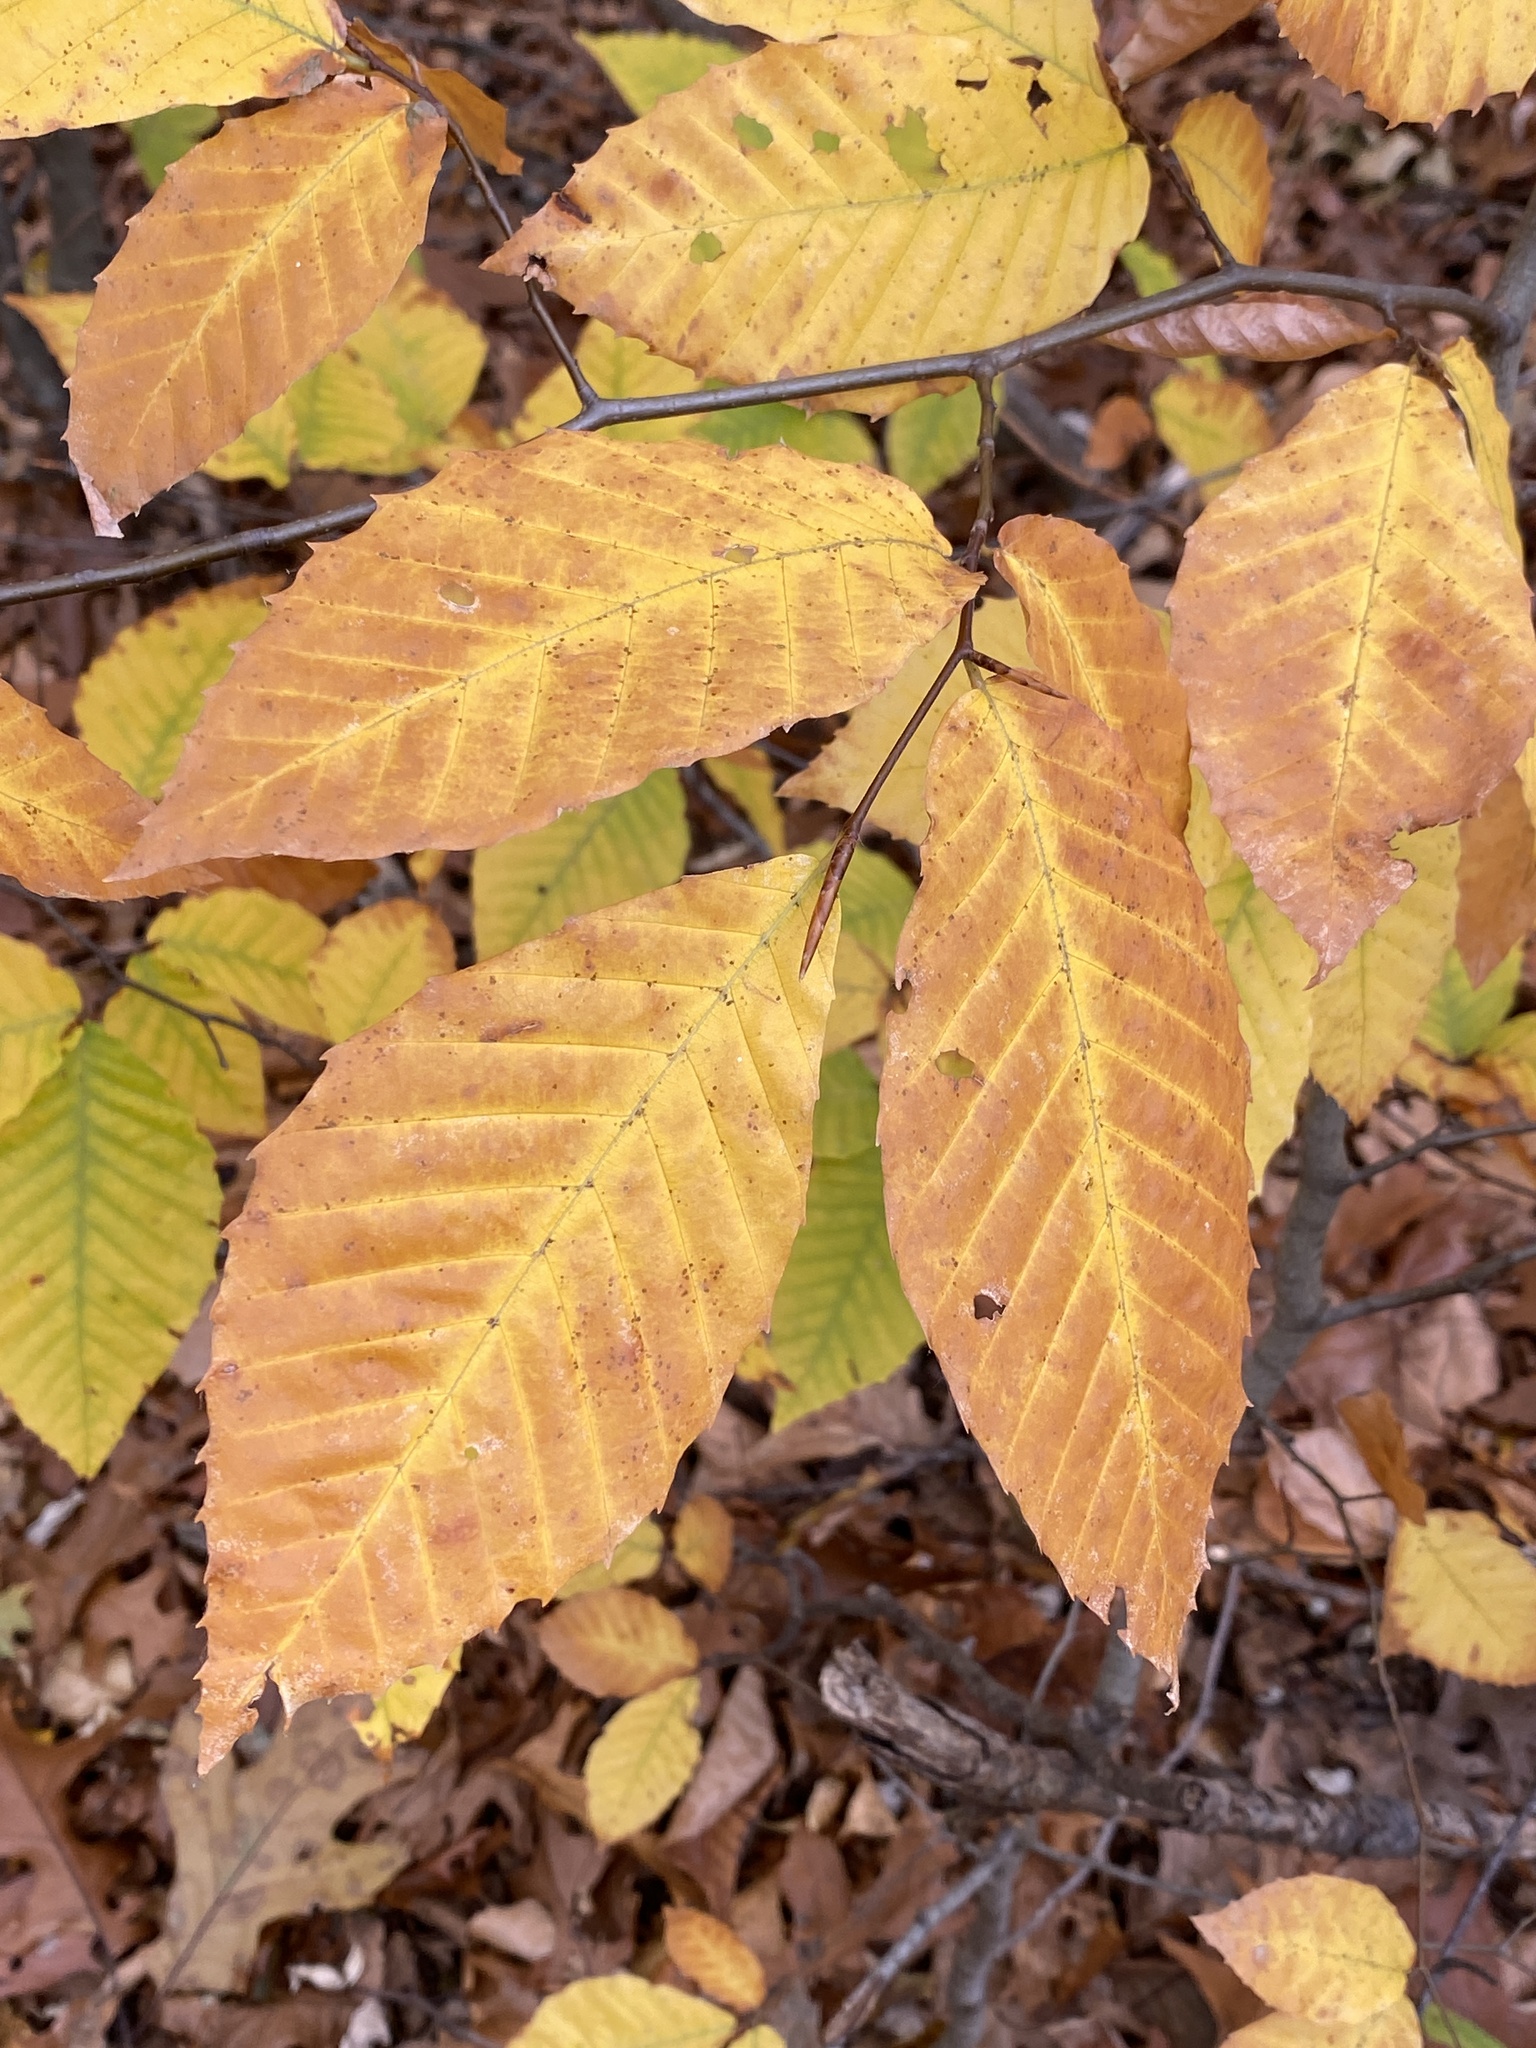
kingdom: Plantae
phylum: Tracheophyta
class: Magnoliopsida
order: Fagales
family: Fagaceae
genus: Fagus
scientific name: Fagus grandifolia
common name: American beech
